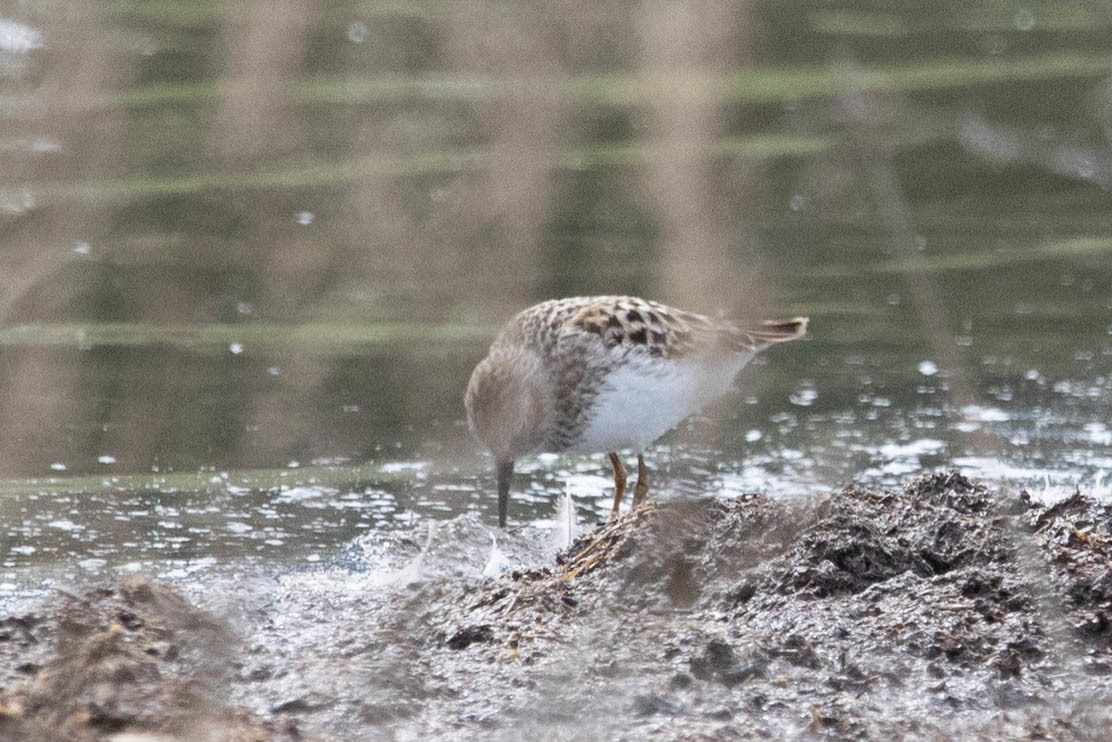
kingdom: Animalia
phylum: Chordata
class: Aves
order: Charadriiformes
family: Scolopacidae
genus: Calidris
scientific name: Calidris minutilla
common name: Least sandpiper
